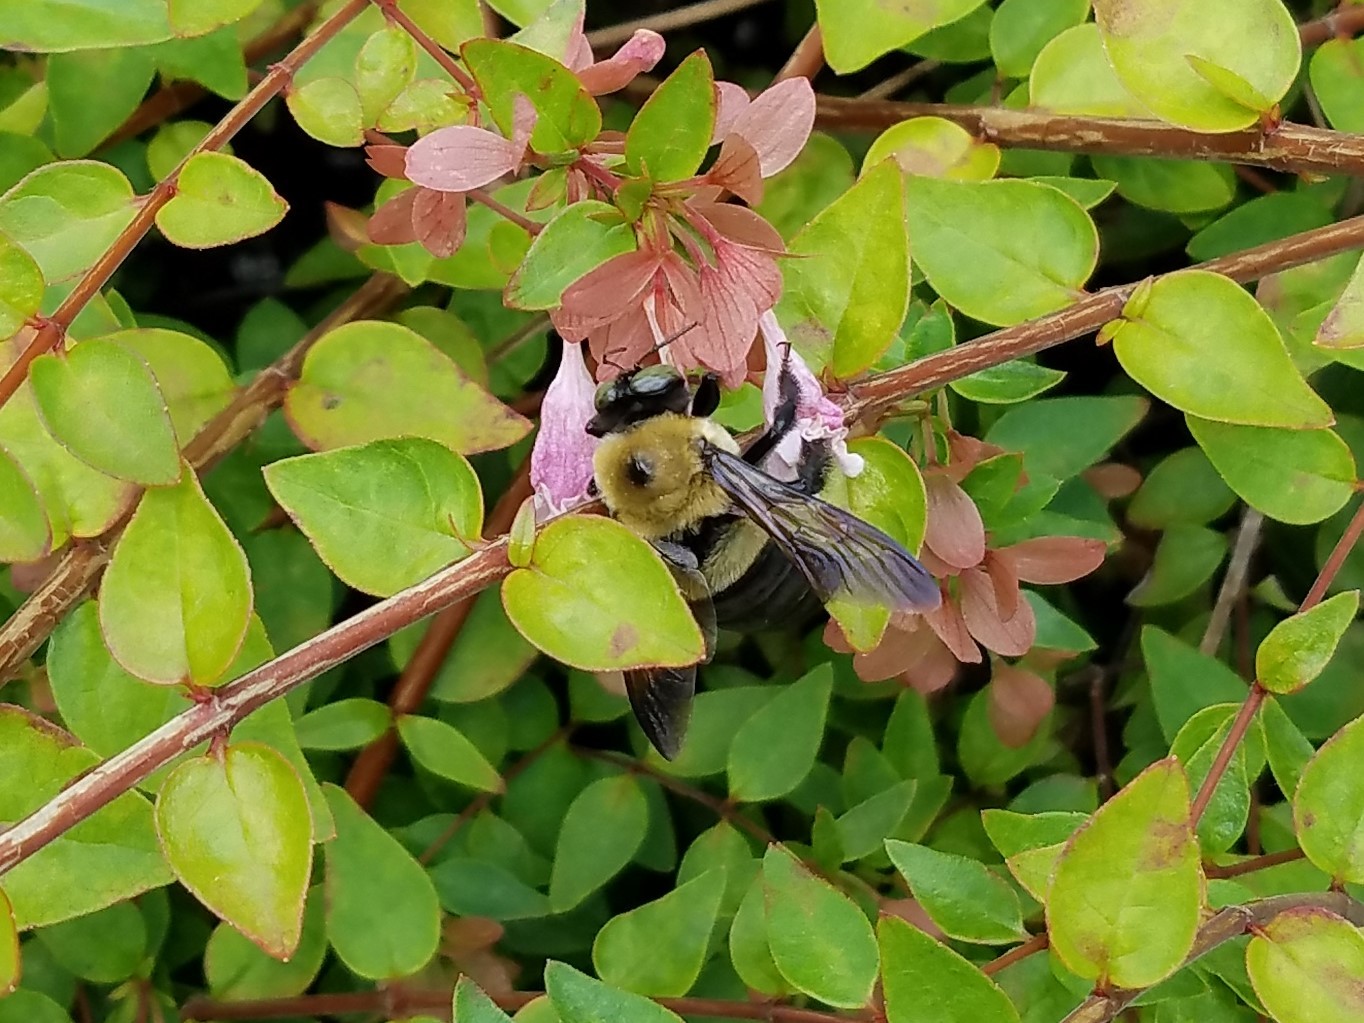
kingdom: Animalia
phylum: Arthropoda
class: Insecta
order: Hymenoptera
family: Apidae
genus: Xylocopa
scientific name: Xylocopa virginica
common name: Carpenter bee
